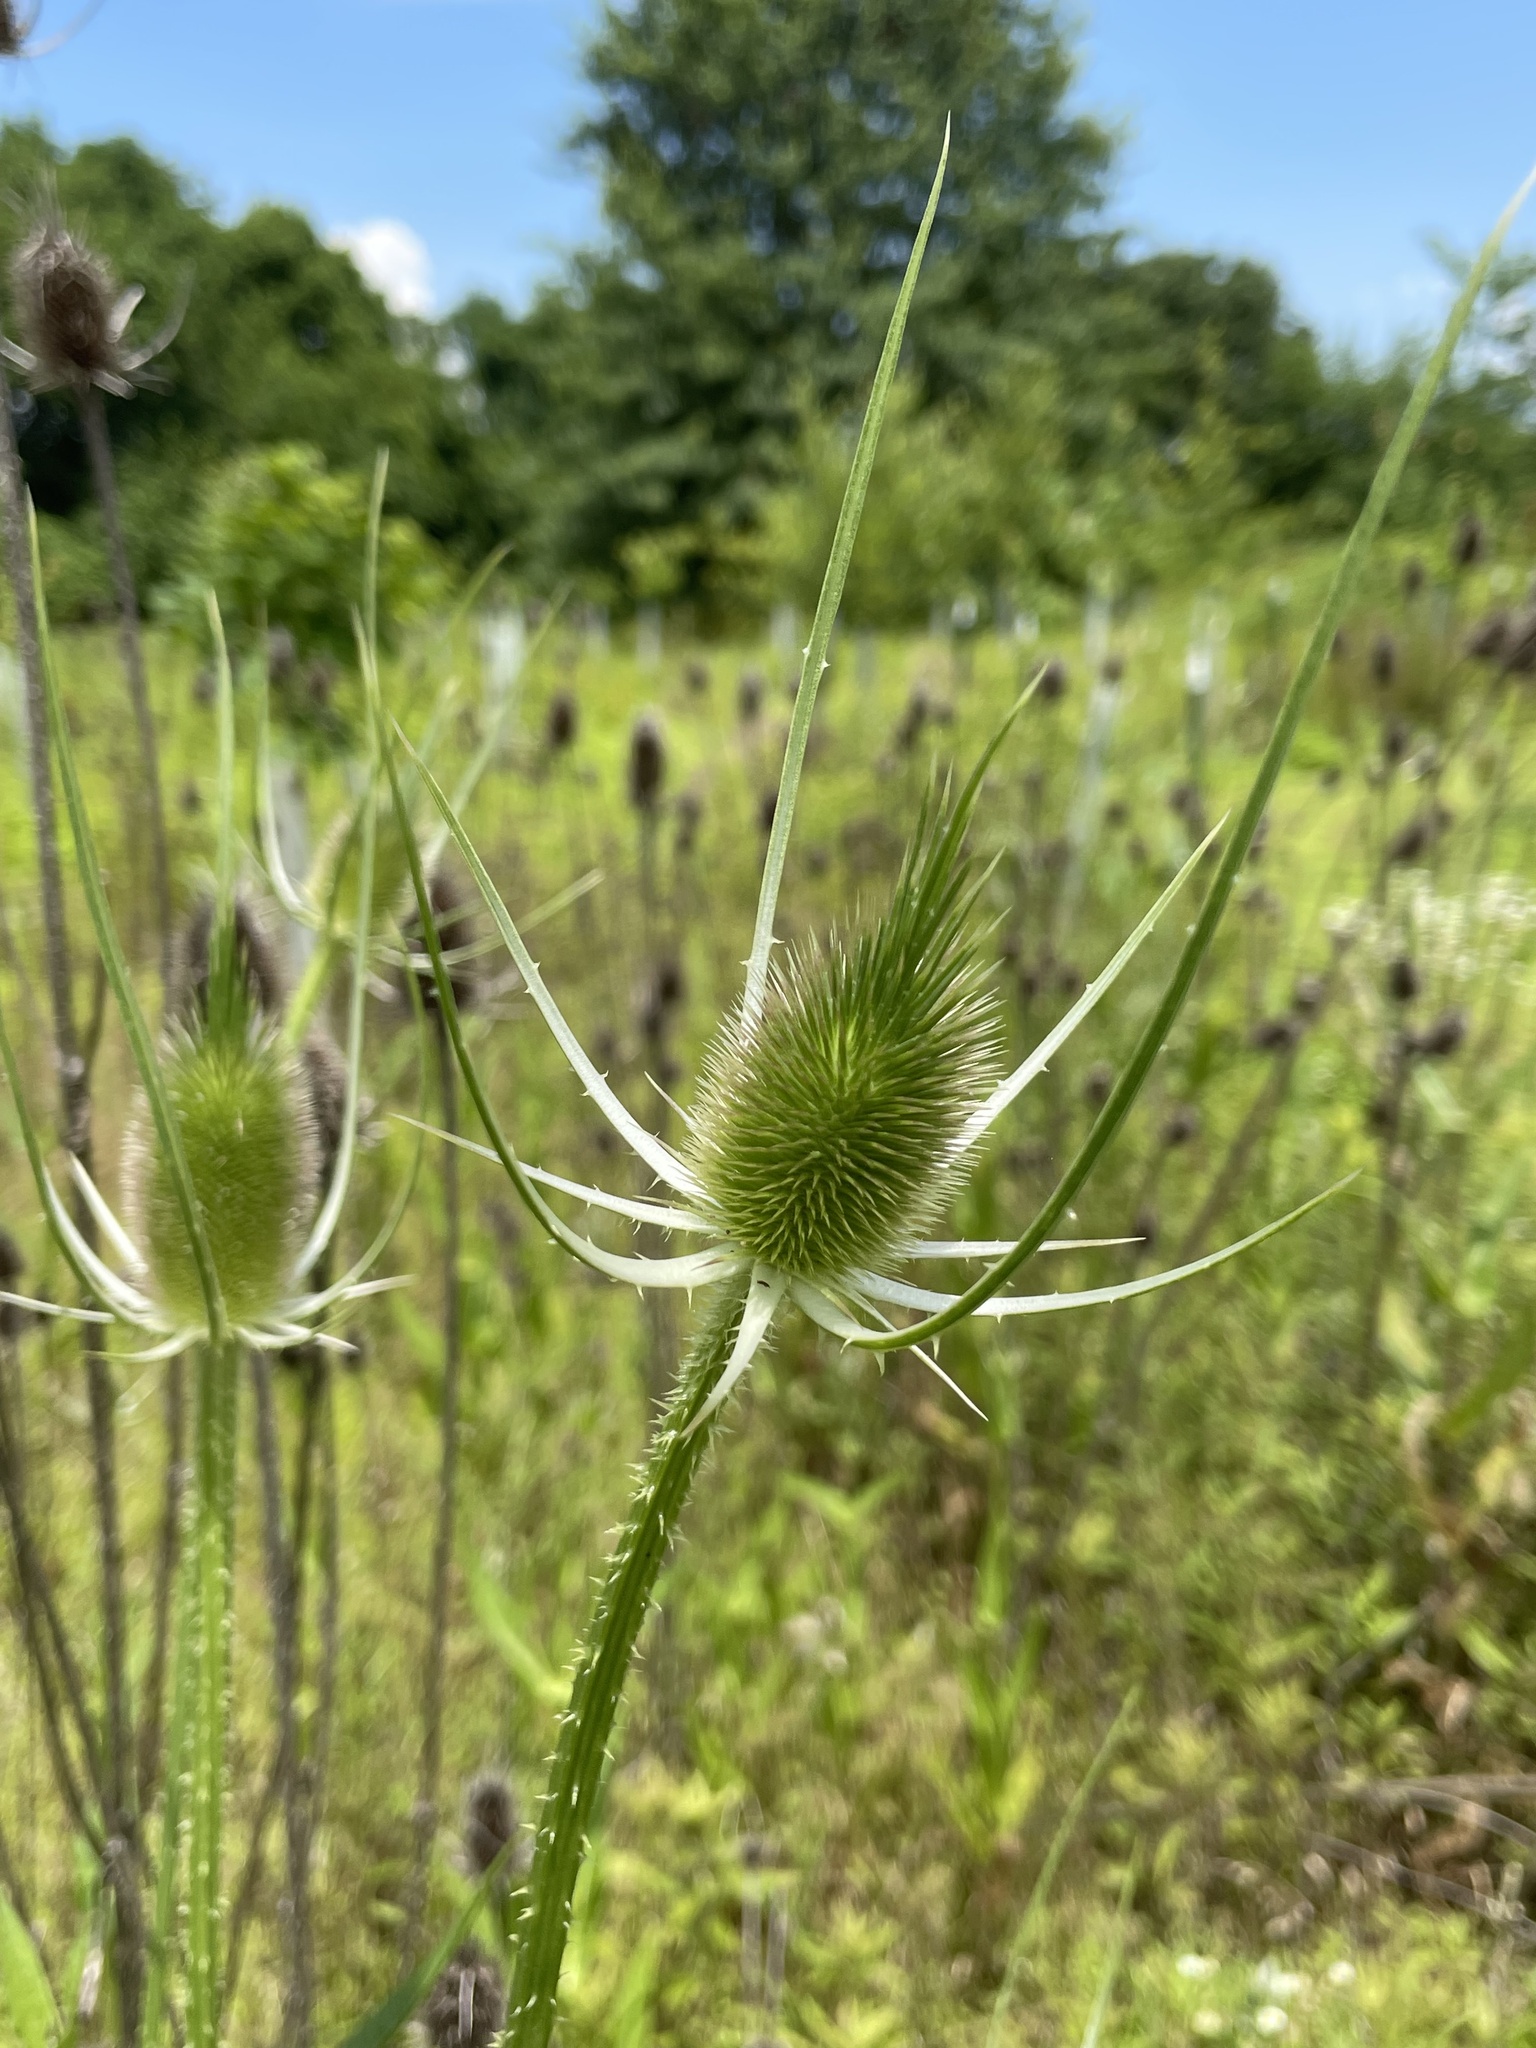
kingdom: Plantae
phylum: Tracheophyta
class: Magnoliopsida
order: Dipsacales
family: Caprifoliaceae
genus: Dipsacus
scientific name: Dipsacus fullonum
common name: Teasel
